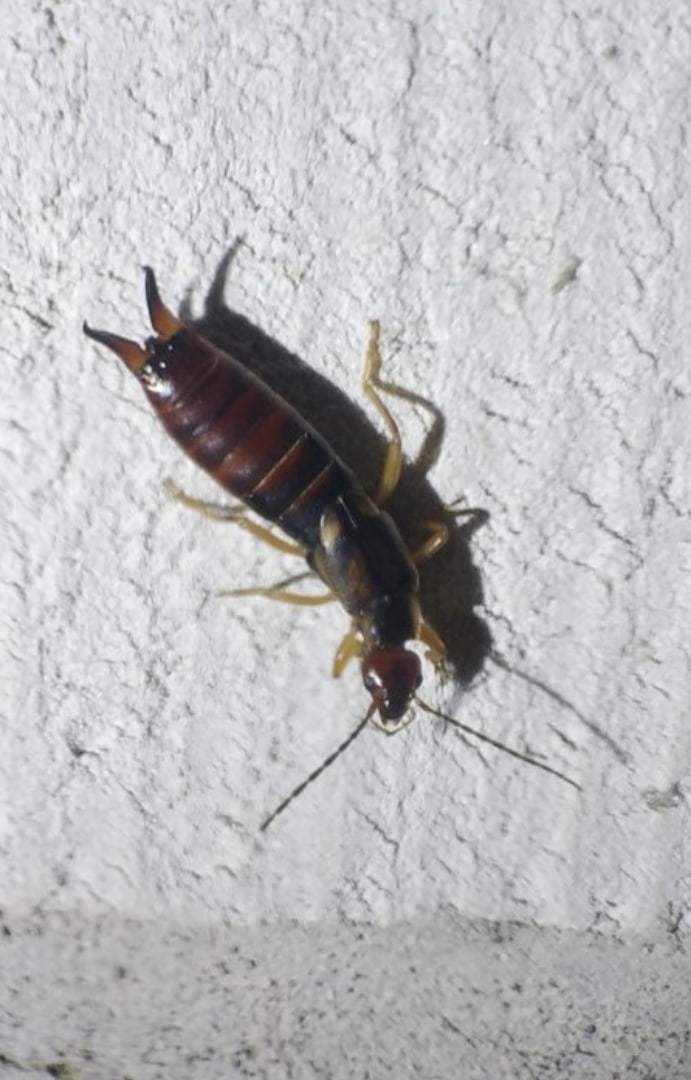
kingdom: Animalia
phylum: Arthropoda
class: Insecta
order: Dermaptera
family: Forficulidae
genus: Forficula
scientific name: Forficula
